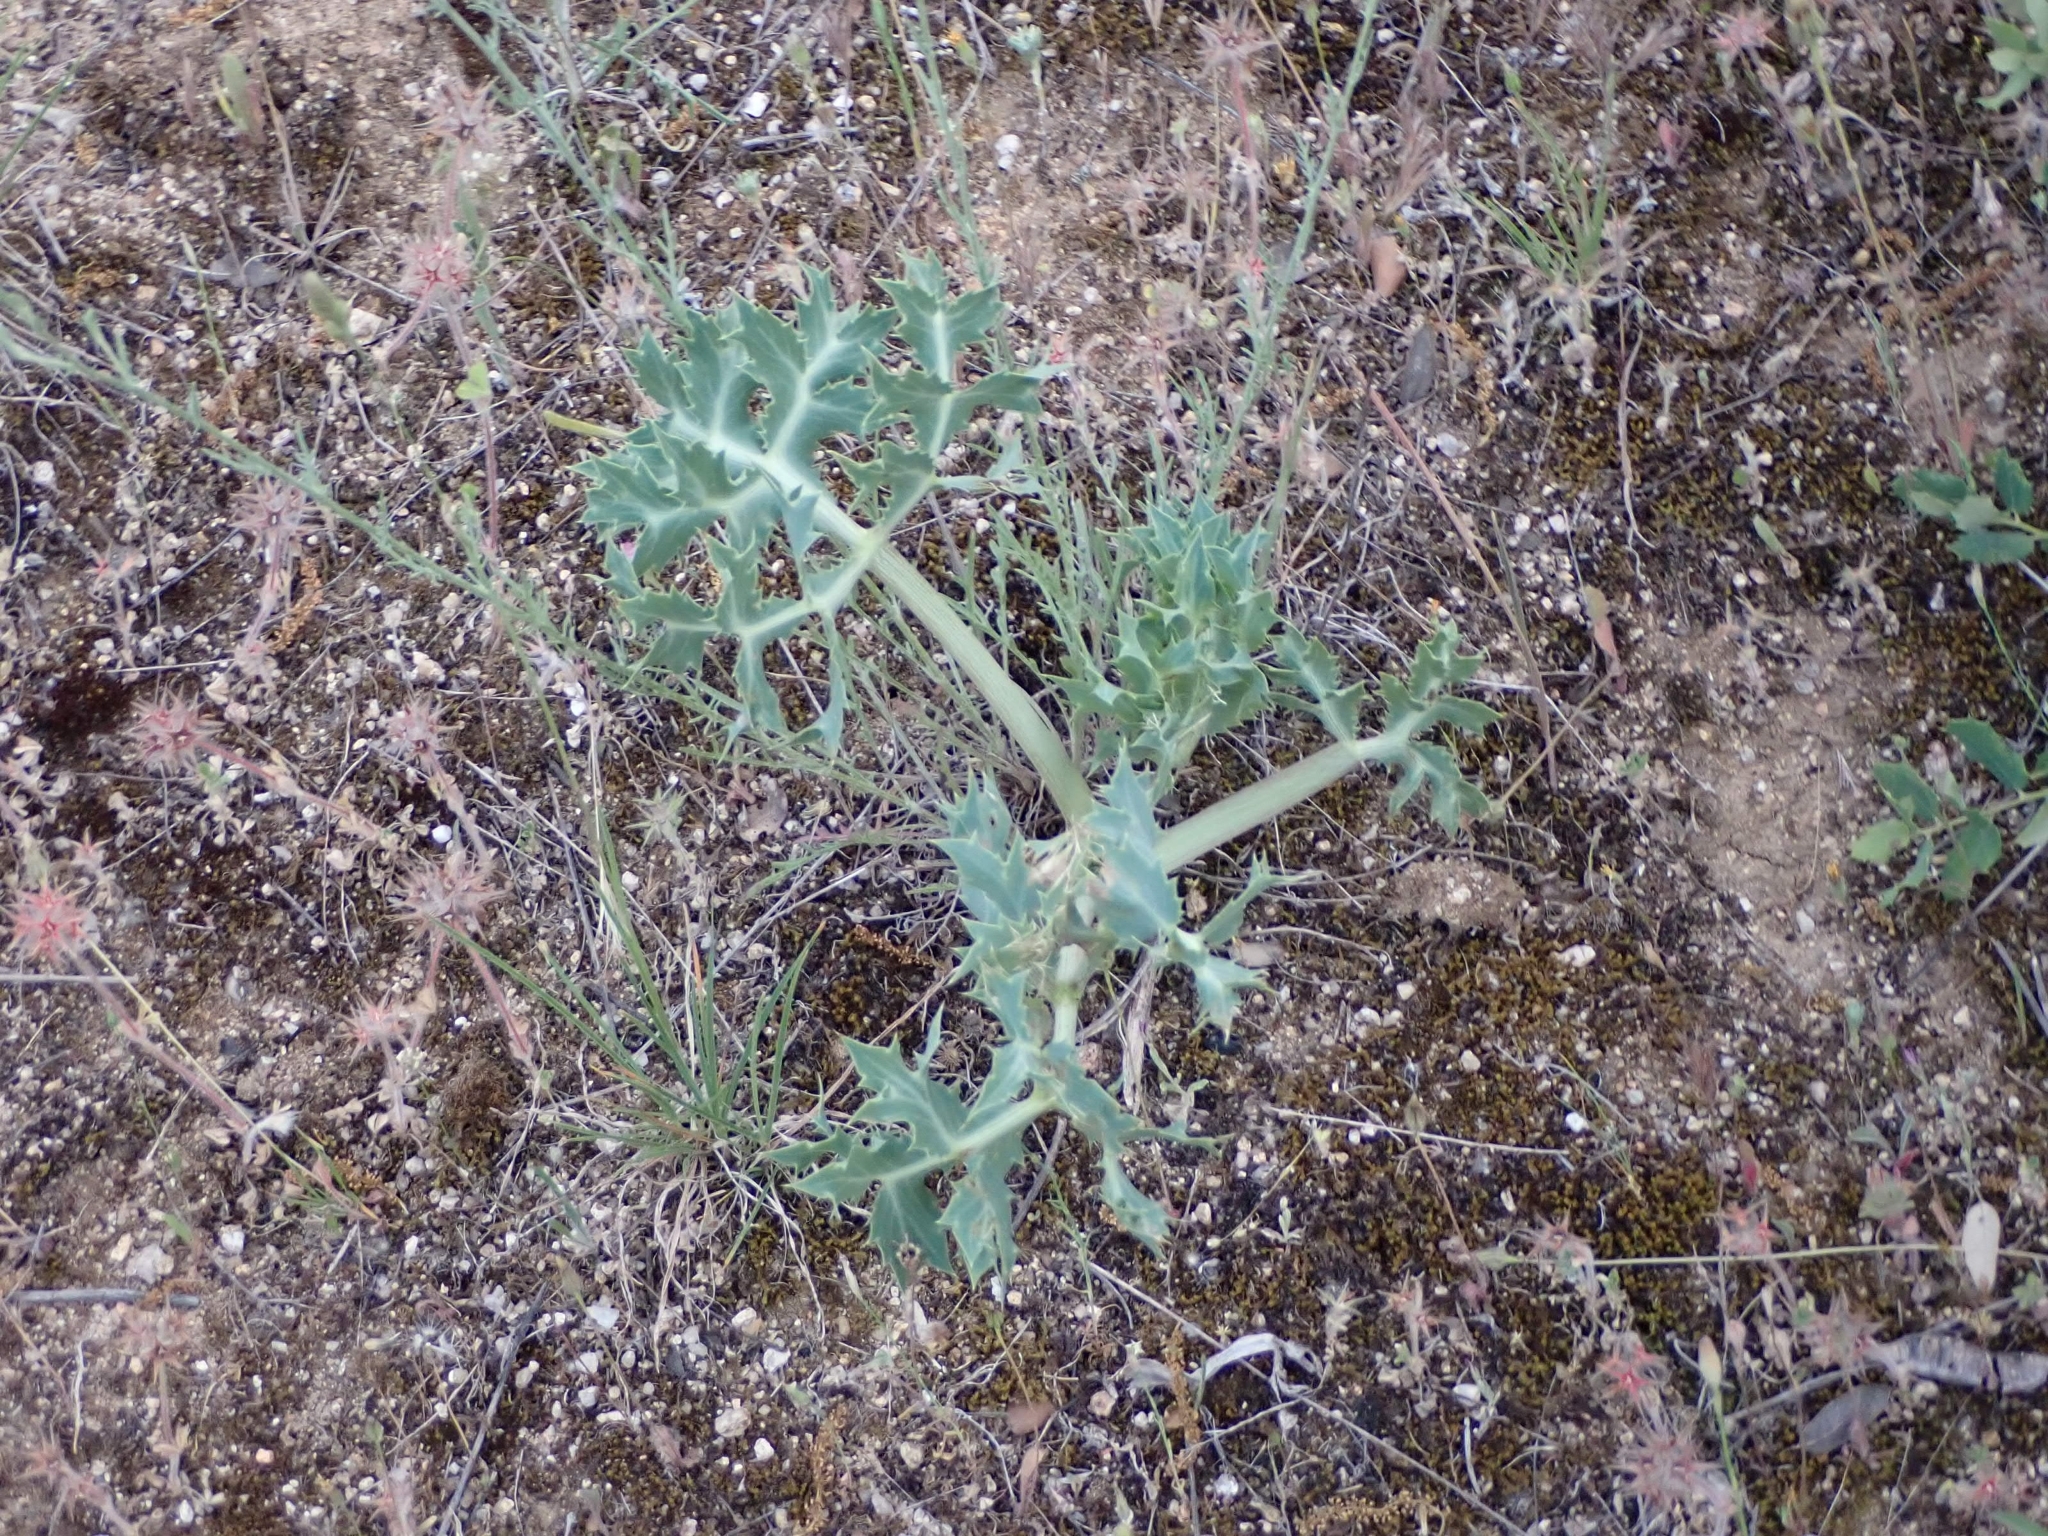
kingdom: Plantae
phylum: Tracheophyta
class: Magnoliopsida
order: Apiales
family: Apiaceae
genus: Eryngium
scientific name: Eryngium campestre
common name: Field eryngo
